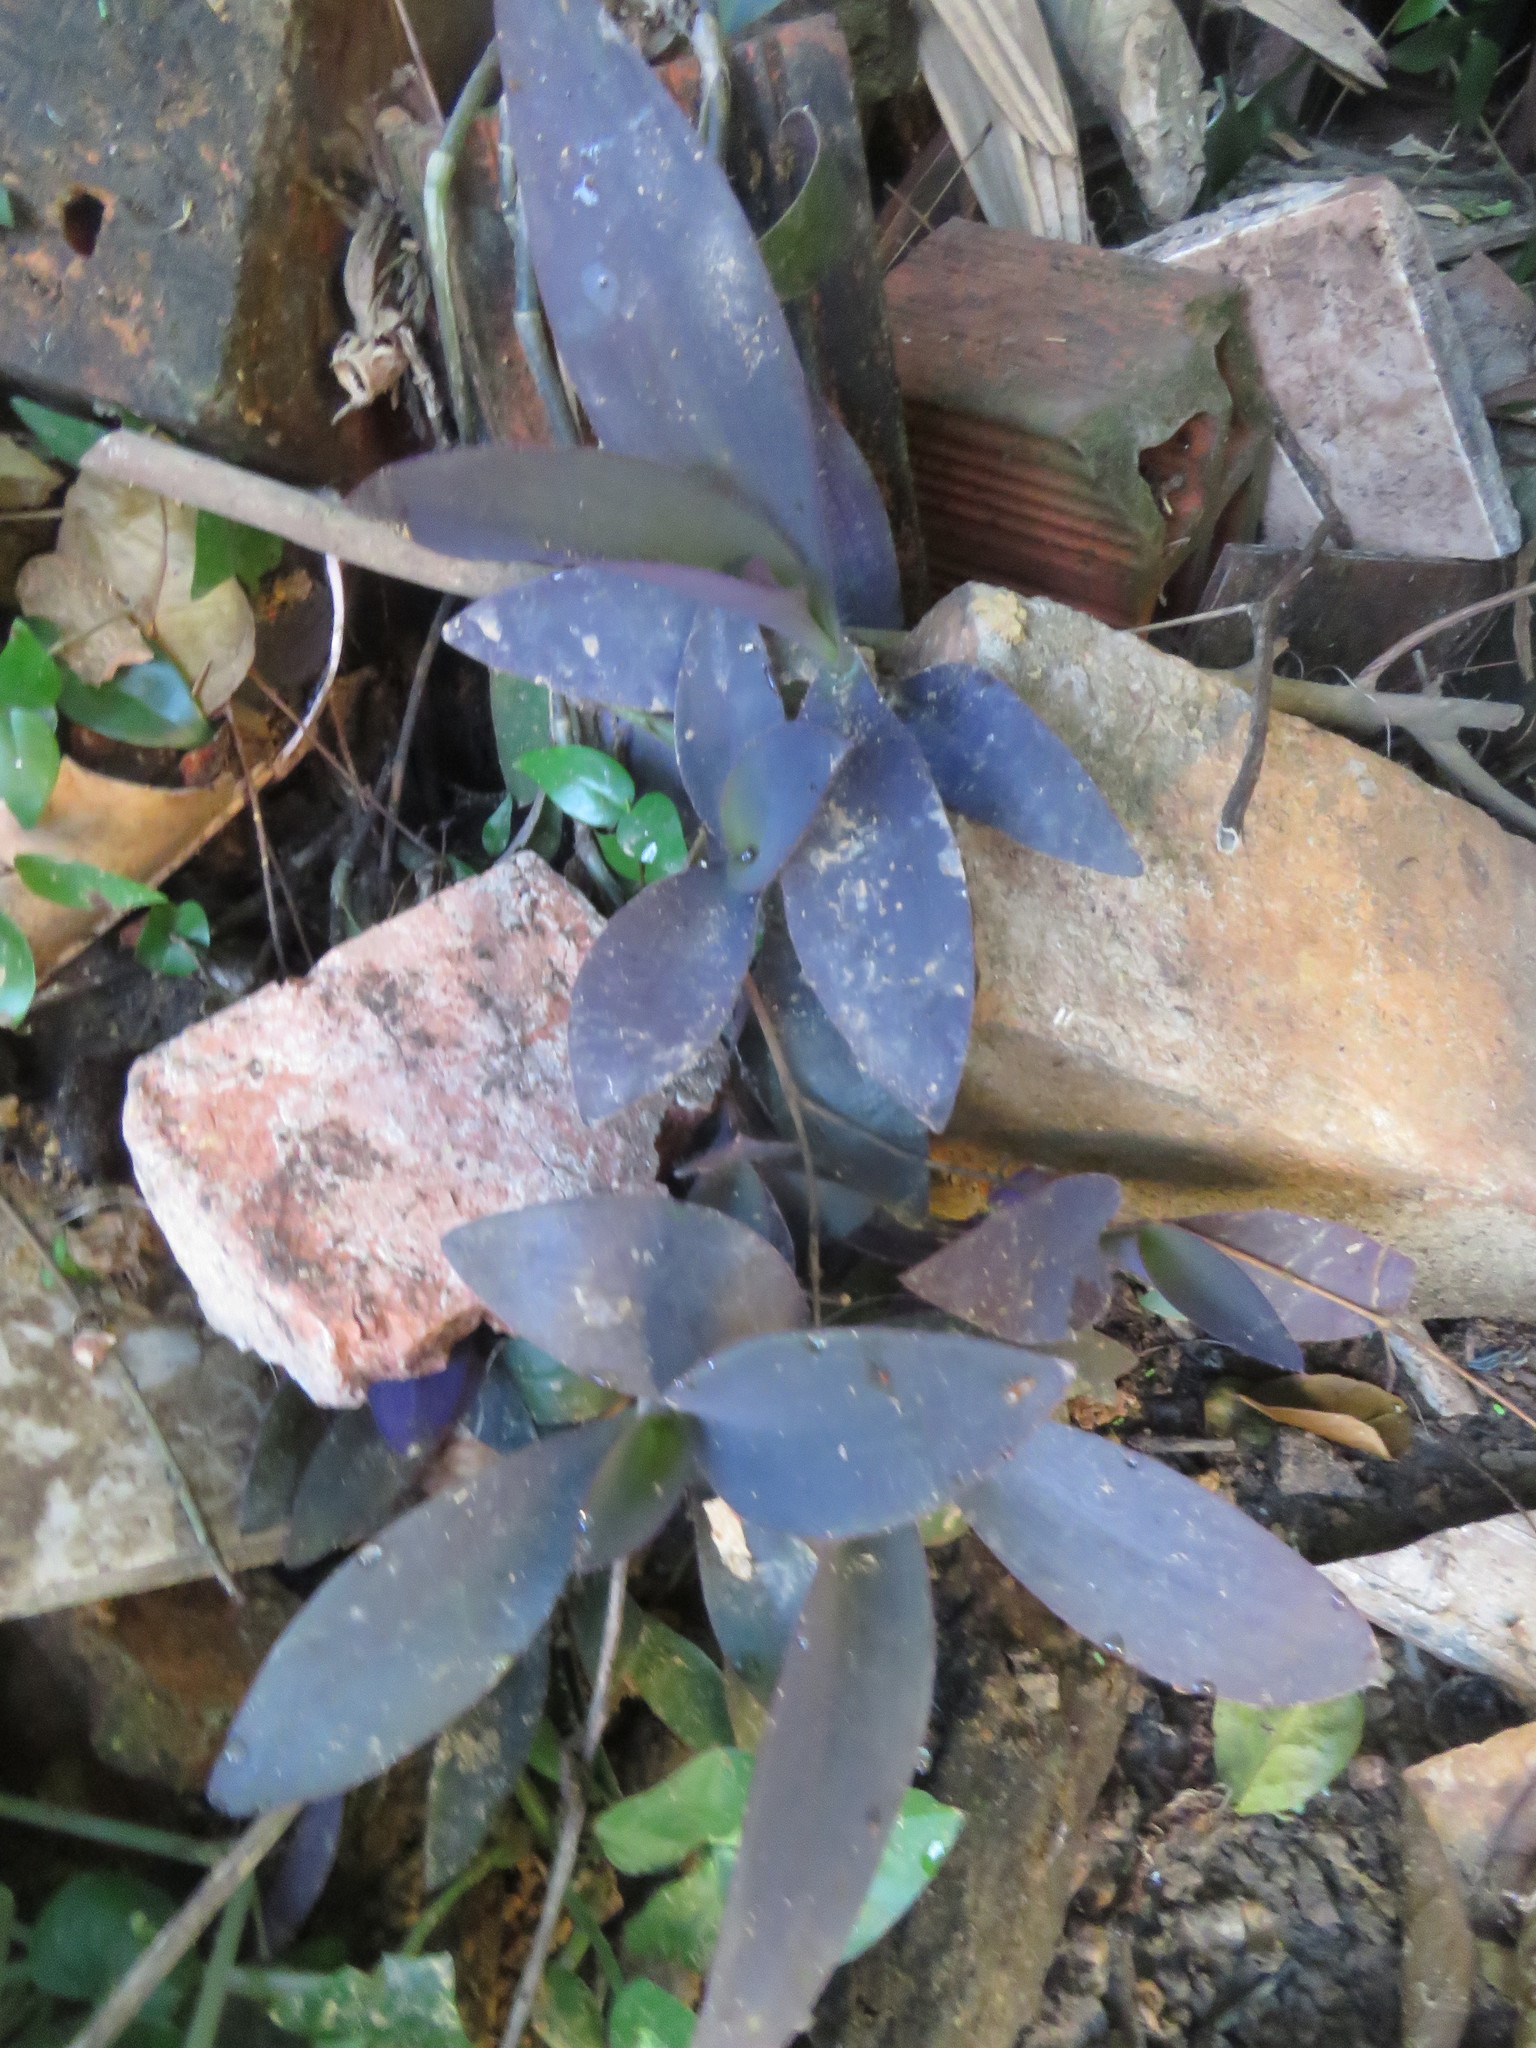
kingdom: Plantae
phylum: Tracheophyta
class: Liliopsida
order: Commelinales
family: Commelinaceae
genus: Tradescantia
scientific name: Tradescantia pallida
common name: Purpleheart
